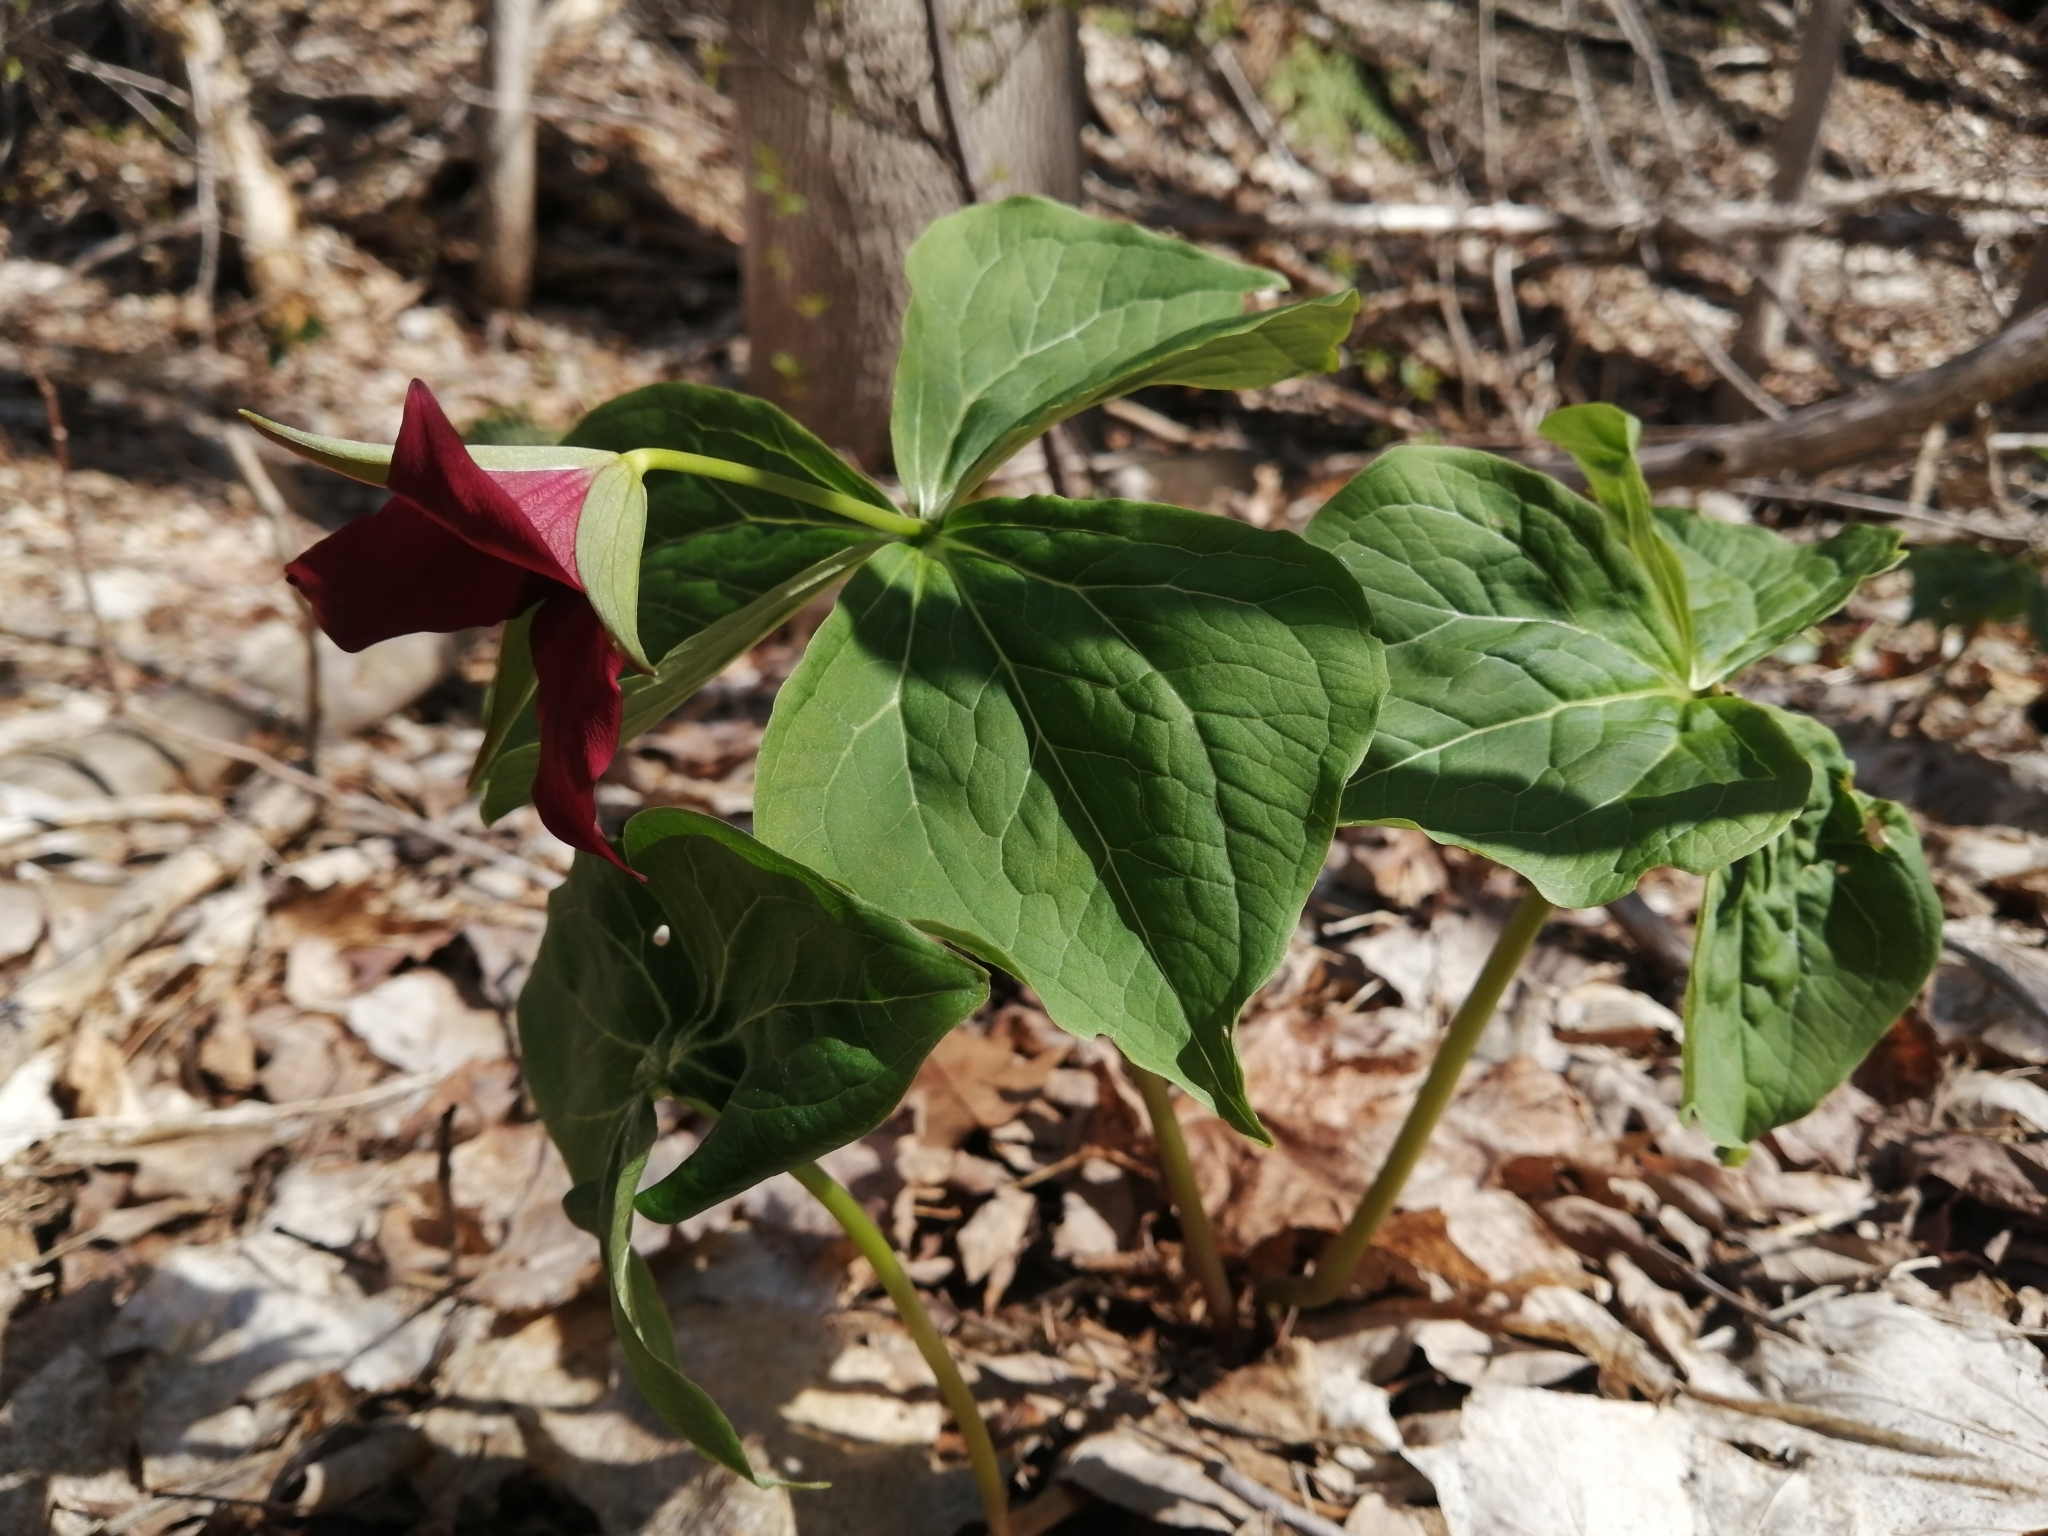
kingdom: Plantae
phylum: Tracheophyta
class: Liliopsida
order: Liliales
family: Melanthiaceae
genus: Trillium
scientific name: Trillium erectum
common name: Purple trillium
